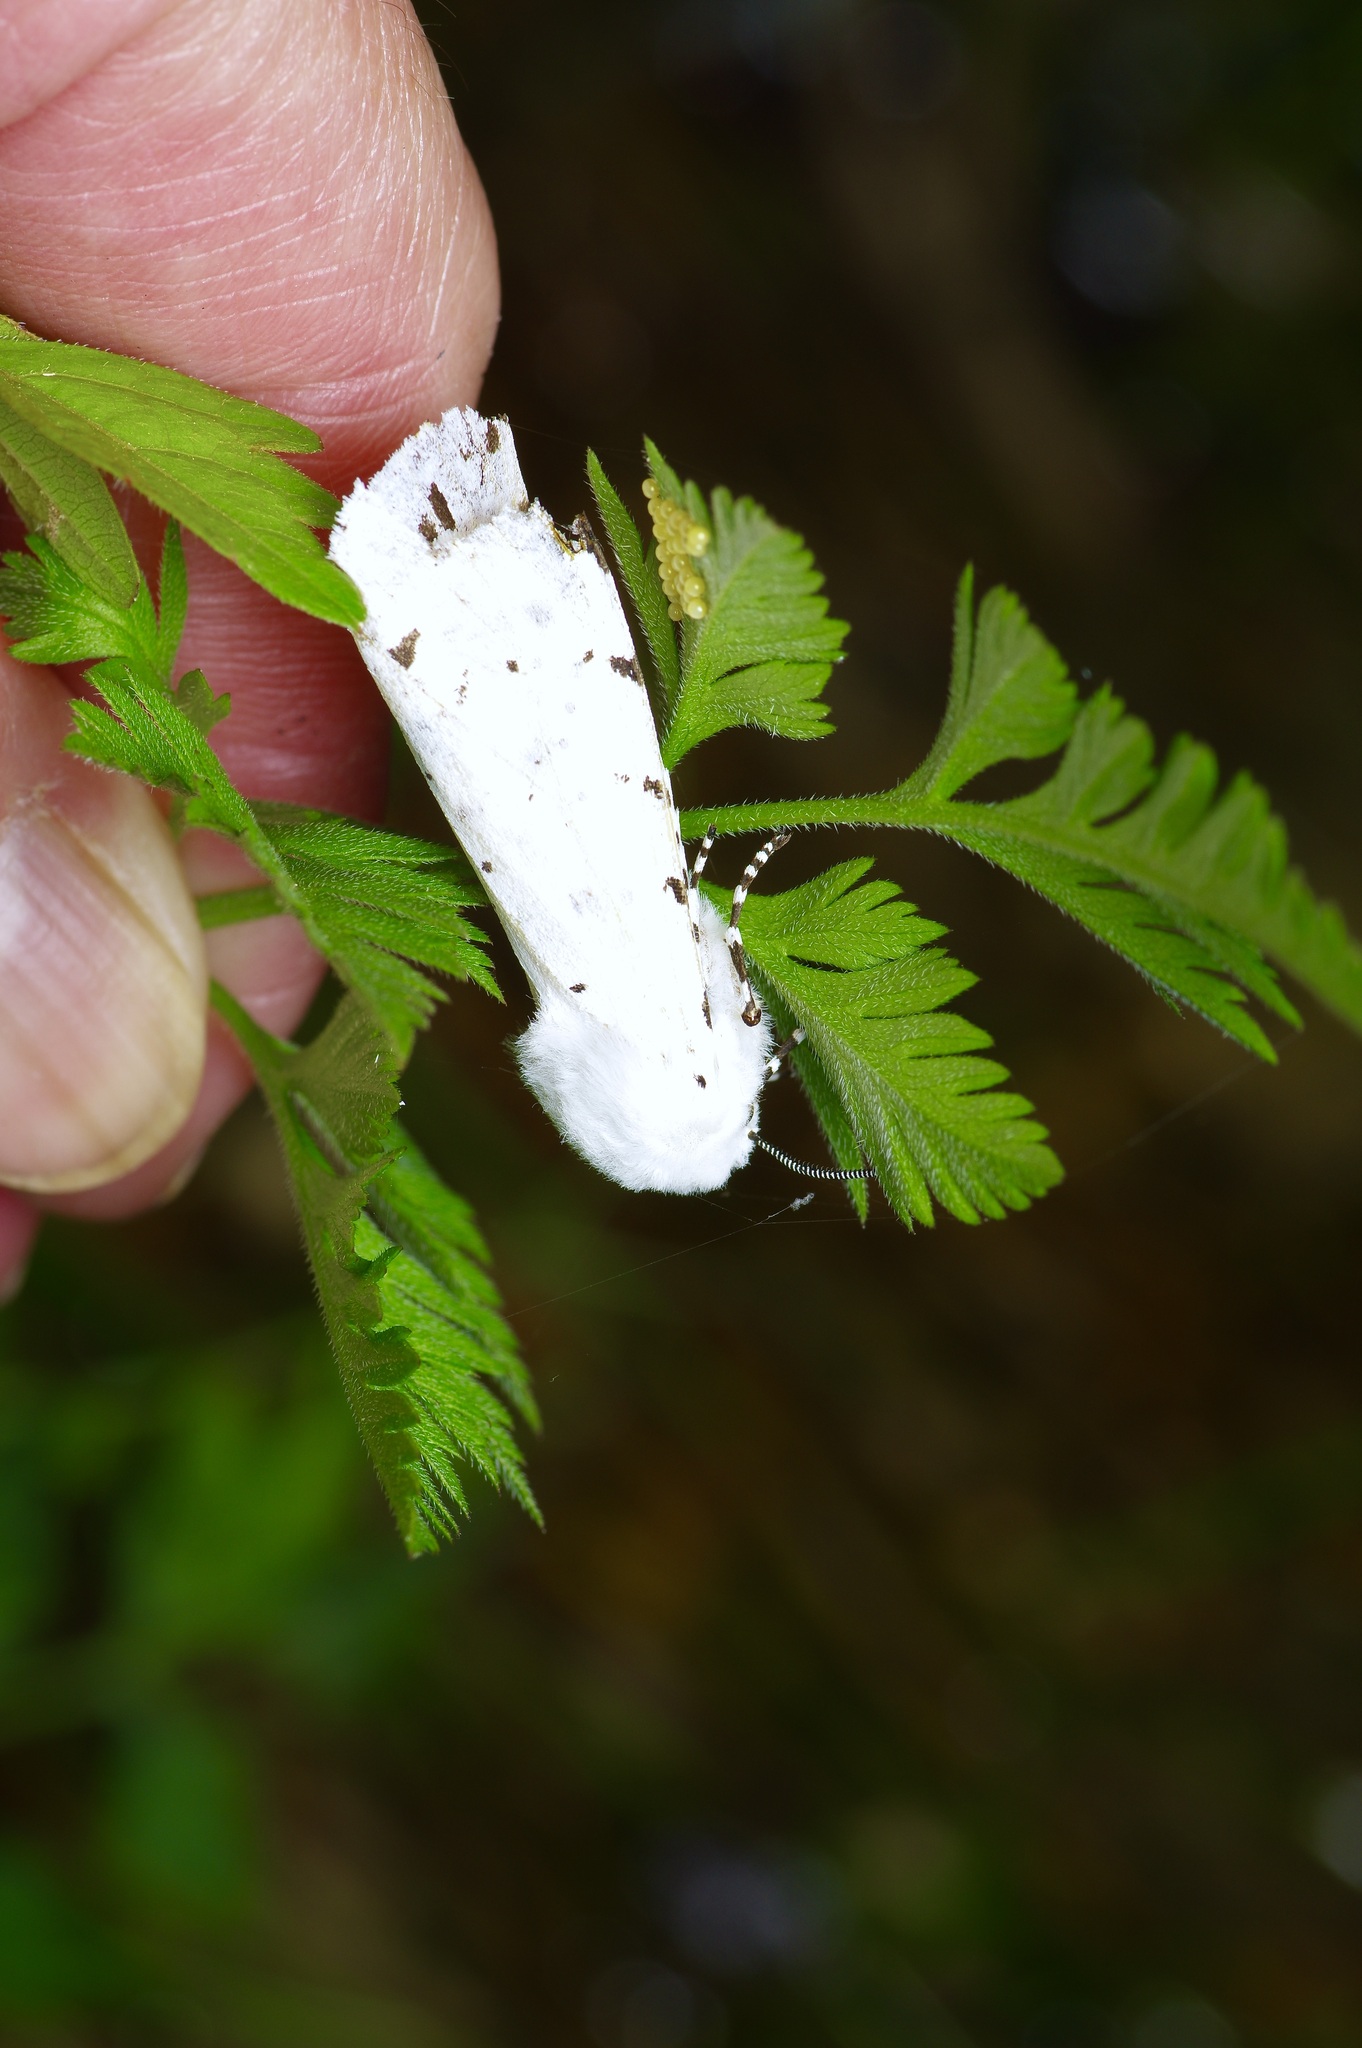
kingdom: Animalia
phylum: Arthropoda
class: Insecta
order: Lepidoptera
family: Erebidae
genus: Estigmene
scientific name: Estigmene acrea
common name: Salt marsh moth
